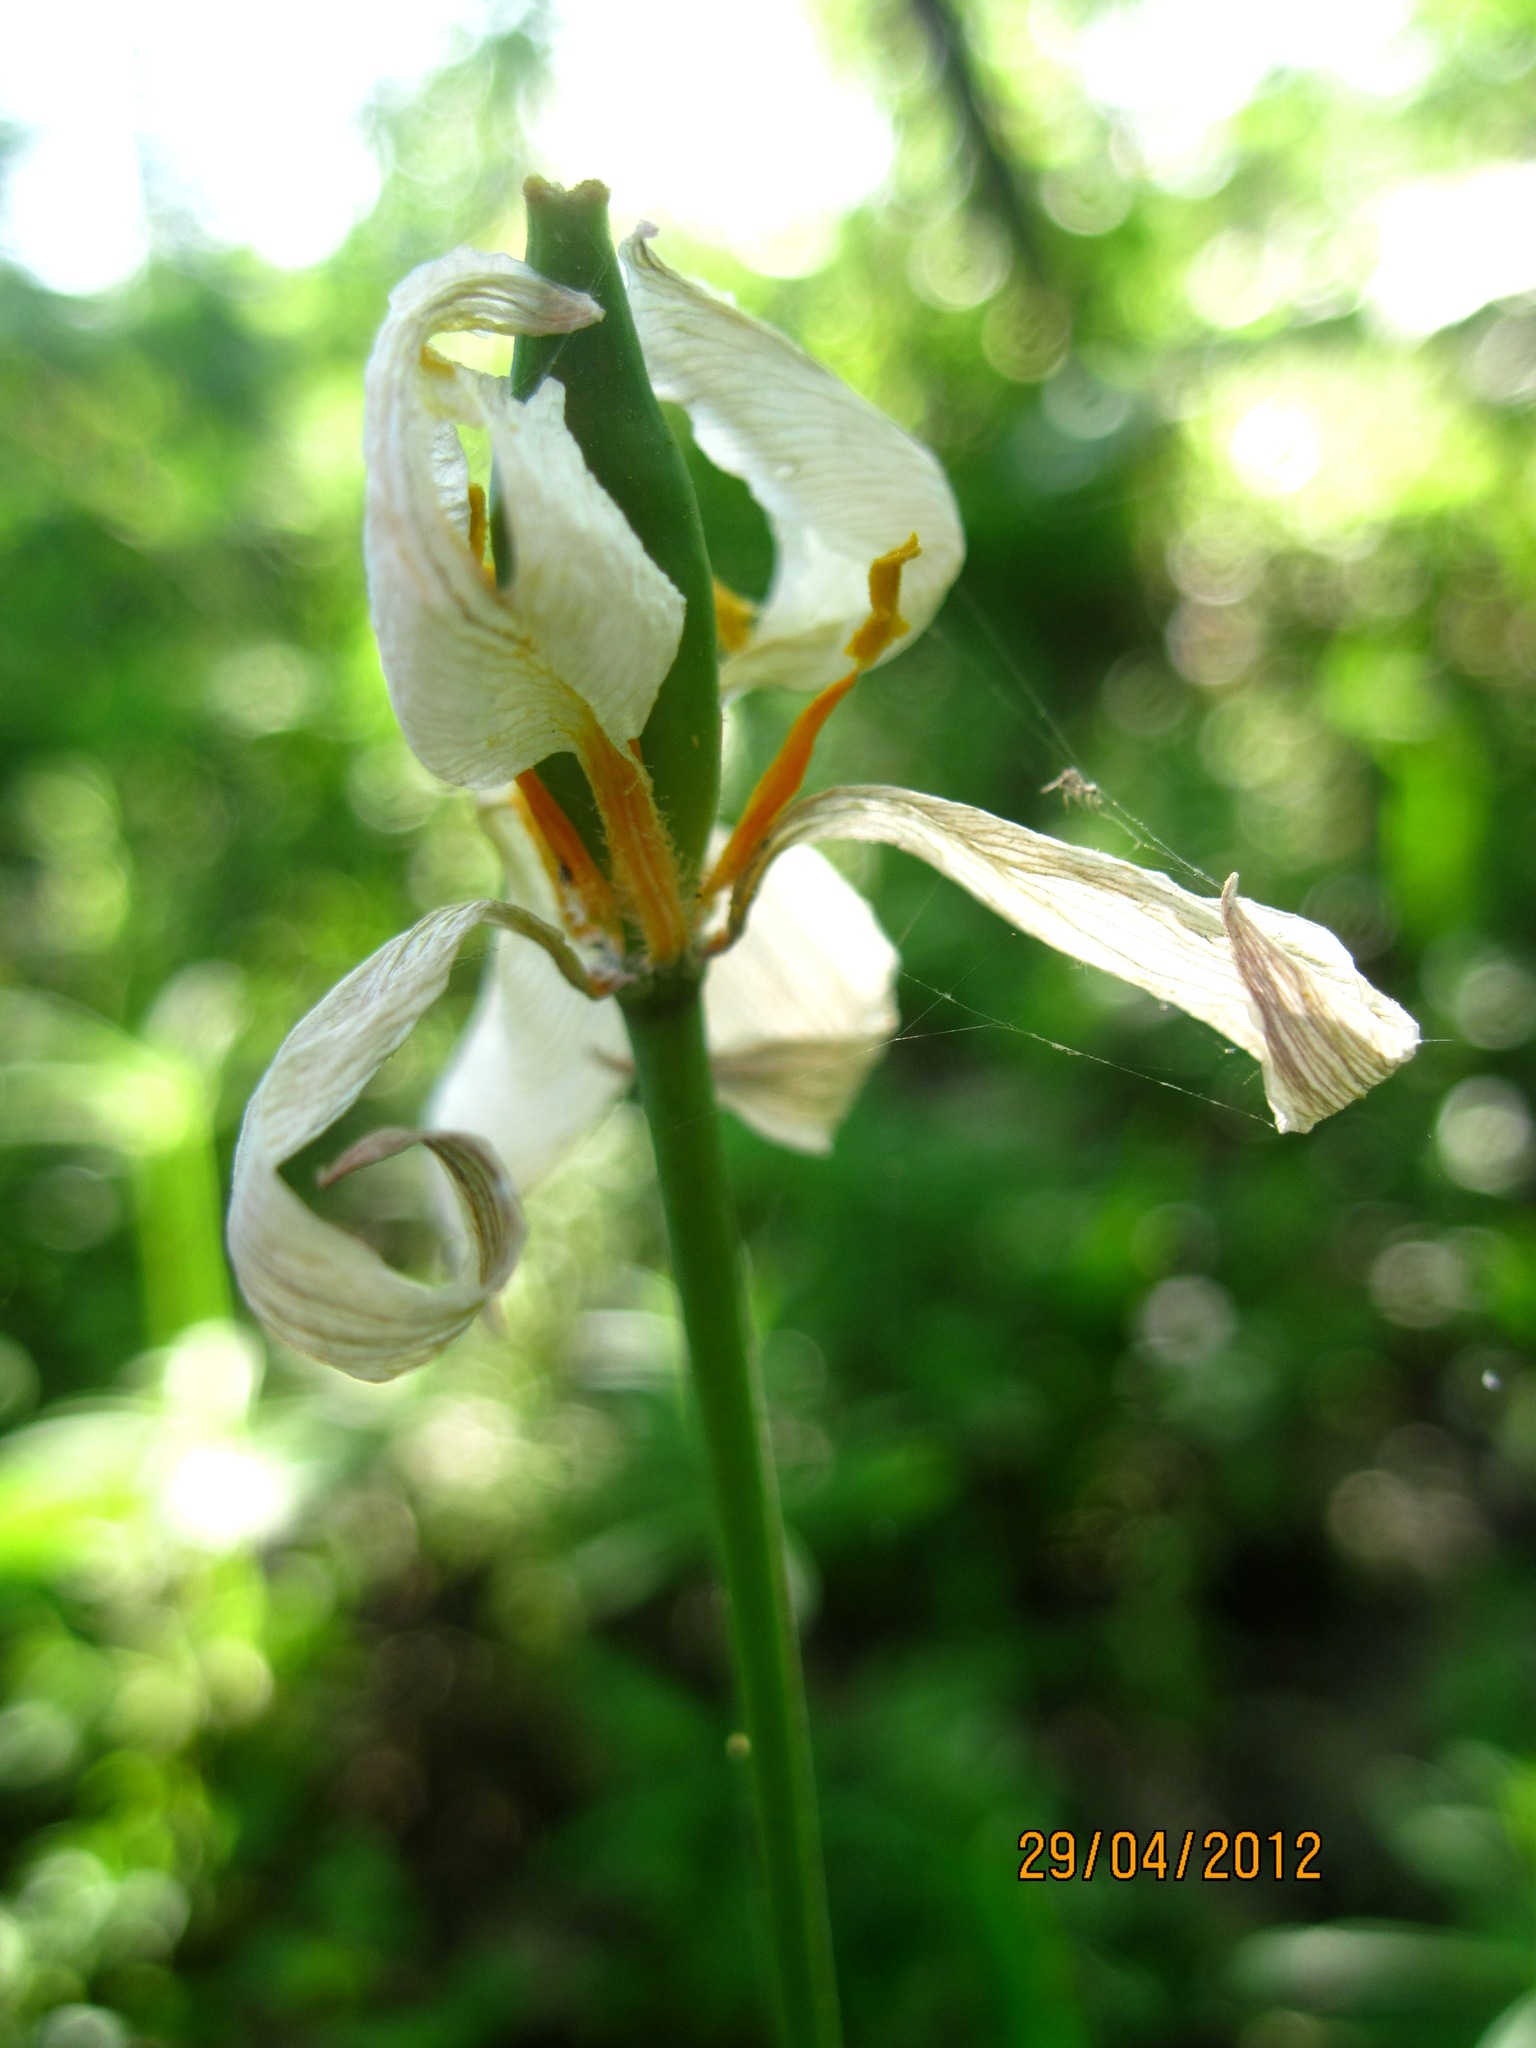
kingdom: Plantae
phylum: Tracheophyta
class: Liliopsida
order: Liliales
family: Liliaceae
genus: Tulipa
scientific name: Tulipa sylvestris
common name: Wild tulip
